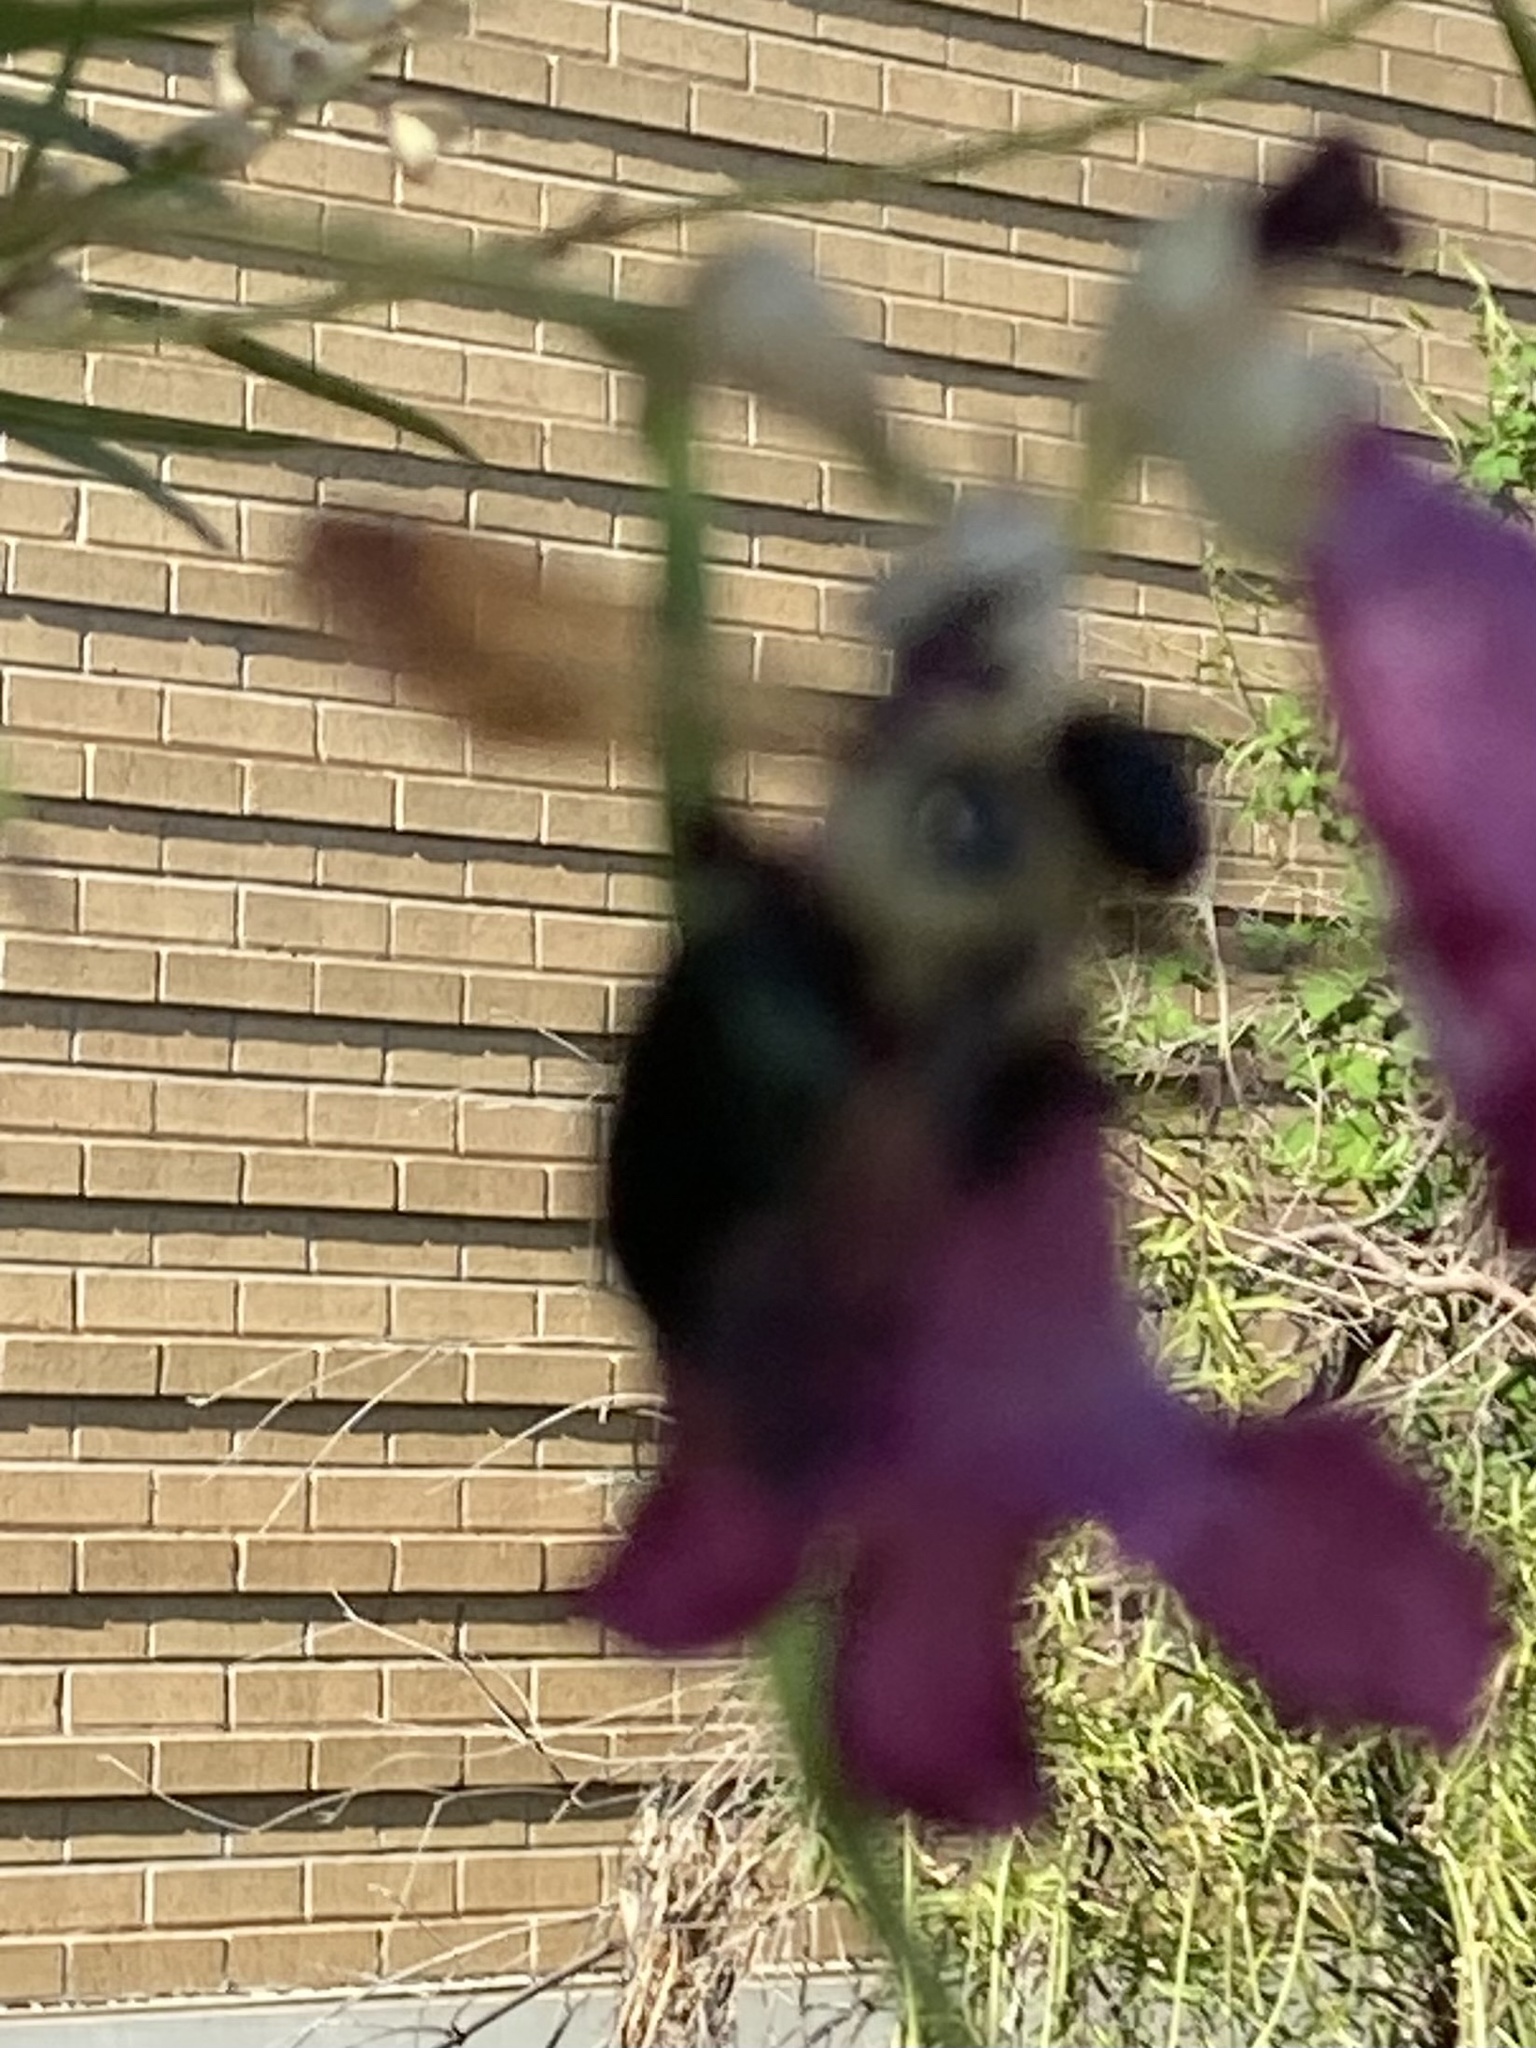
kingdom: Animalia
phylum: Arthropoda
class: Insecta
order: Hymenoptera
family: Apidae
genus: Xylocopa
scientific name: Xylocopa virginica
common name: Carpenter bee
